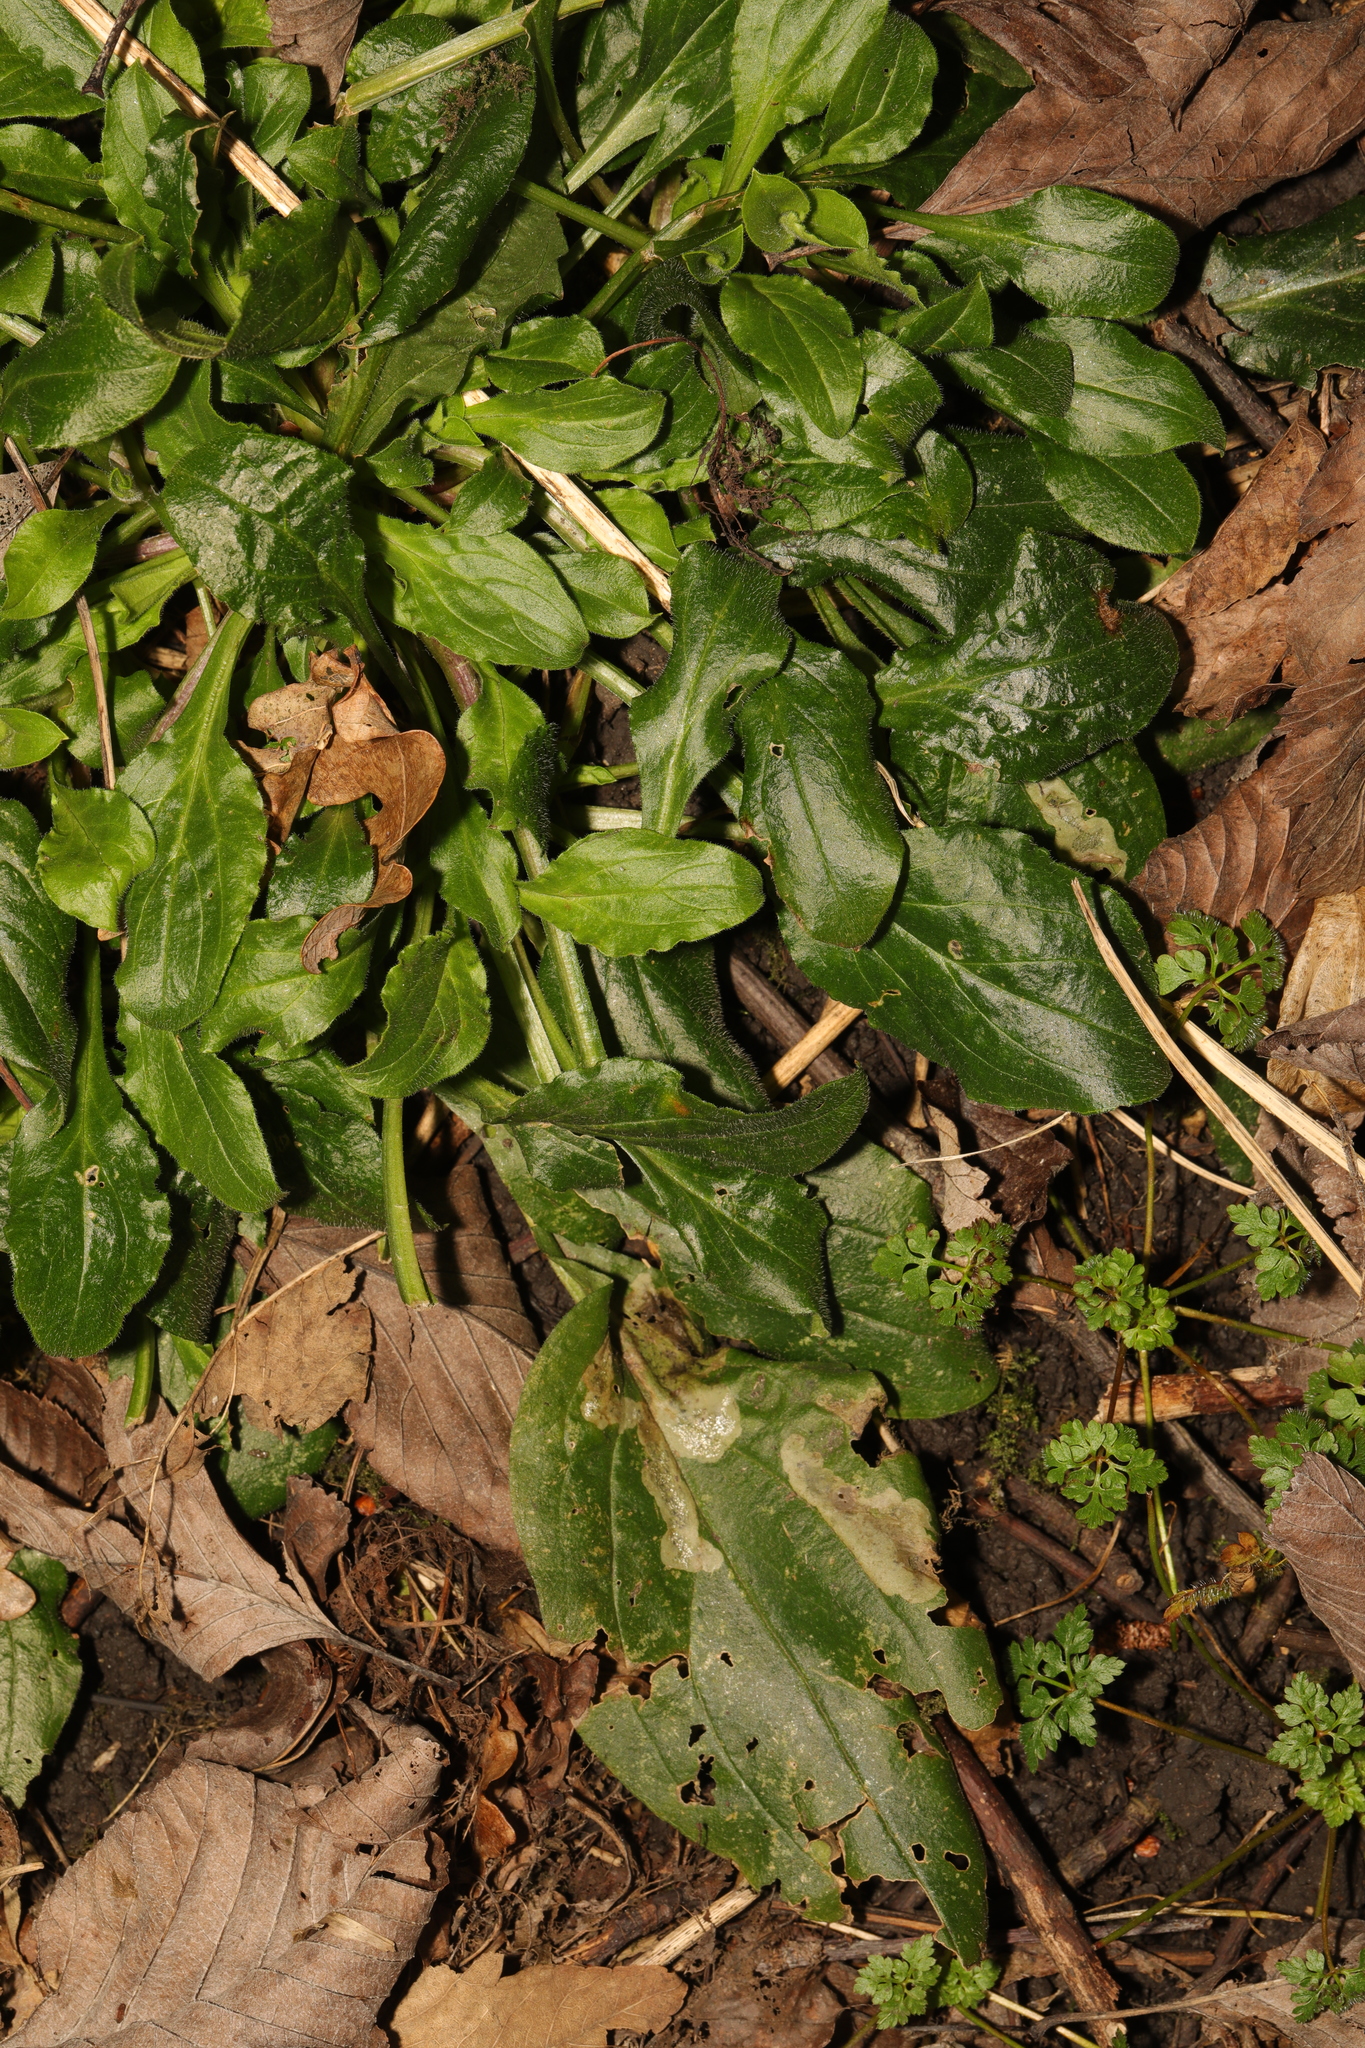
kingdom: Plantae
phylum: Tracheophyta
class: Magnoliopsida
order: Caryophyllales
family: Caryophyllaceae
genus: Silene
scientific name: Silene dioica
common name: Red campion
